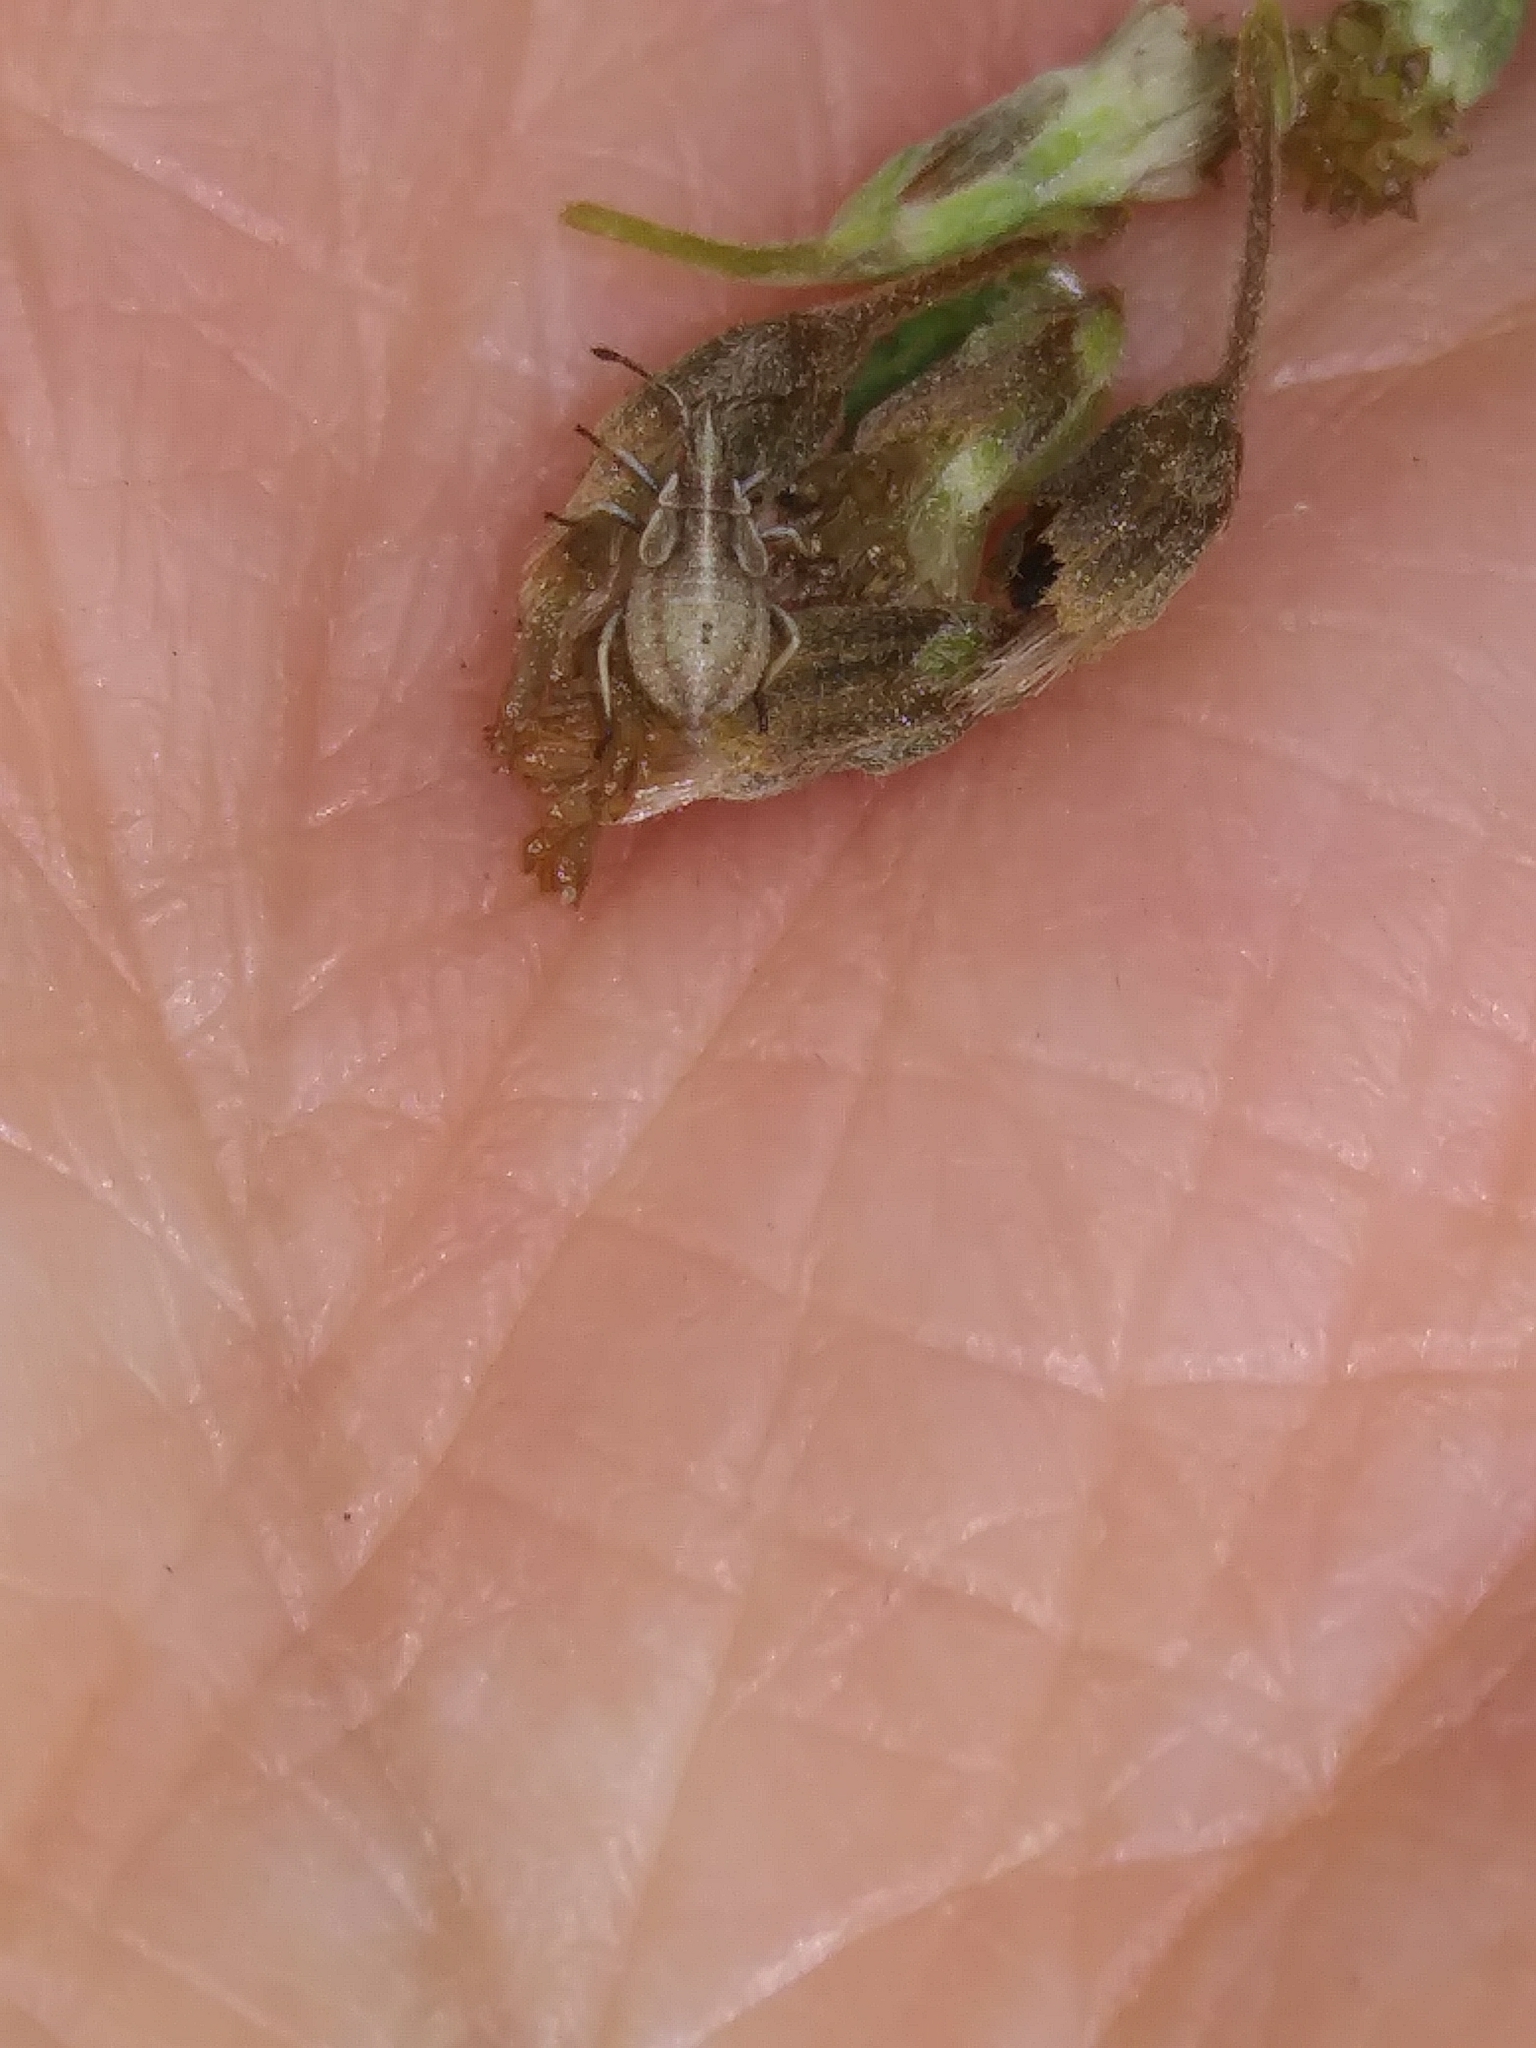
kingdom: Animalia
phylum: Arthropoda
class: Insecta
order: Hemiptera
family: Rhopalidae
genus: Harmostes
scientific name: Harmostes fraterculus
